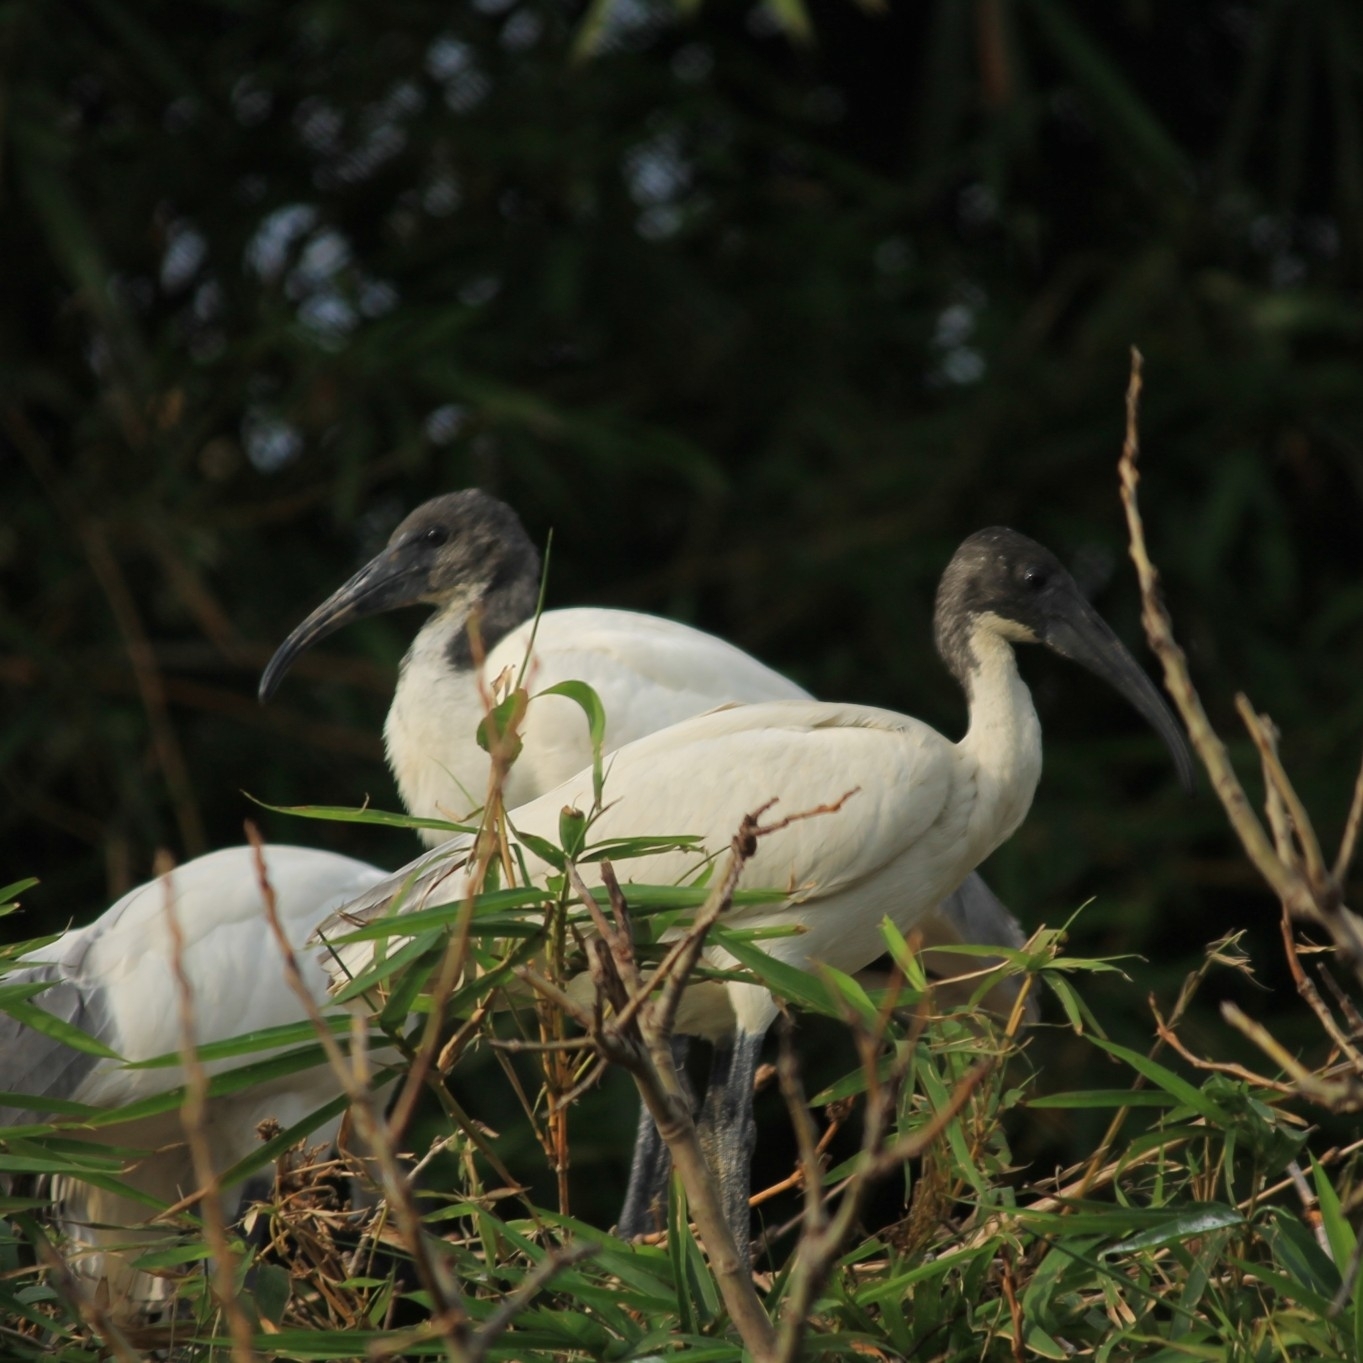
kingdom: Animalia
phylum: Chordata
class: Aves
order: Pelecaniformes
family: Threskiornithidae
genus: Threskiornis
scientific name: Threskiornis melanocephalus
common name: Black-headed ibis
